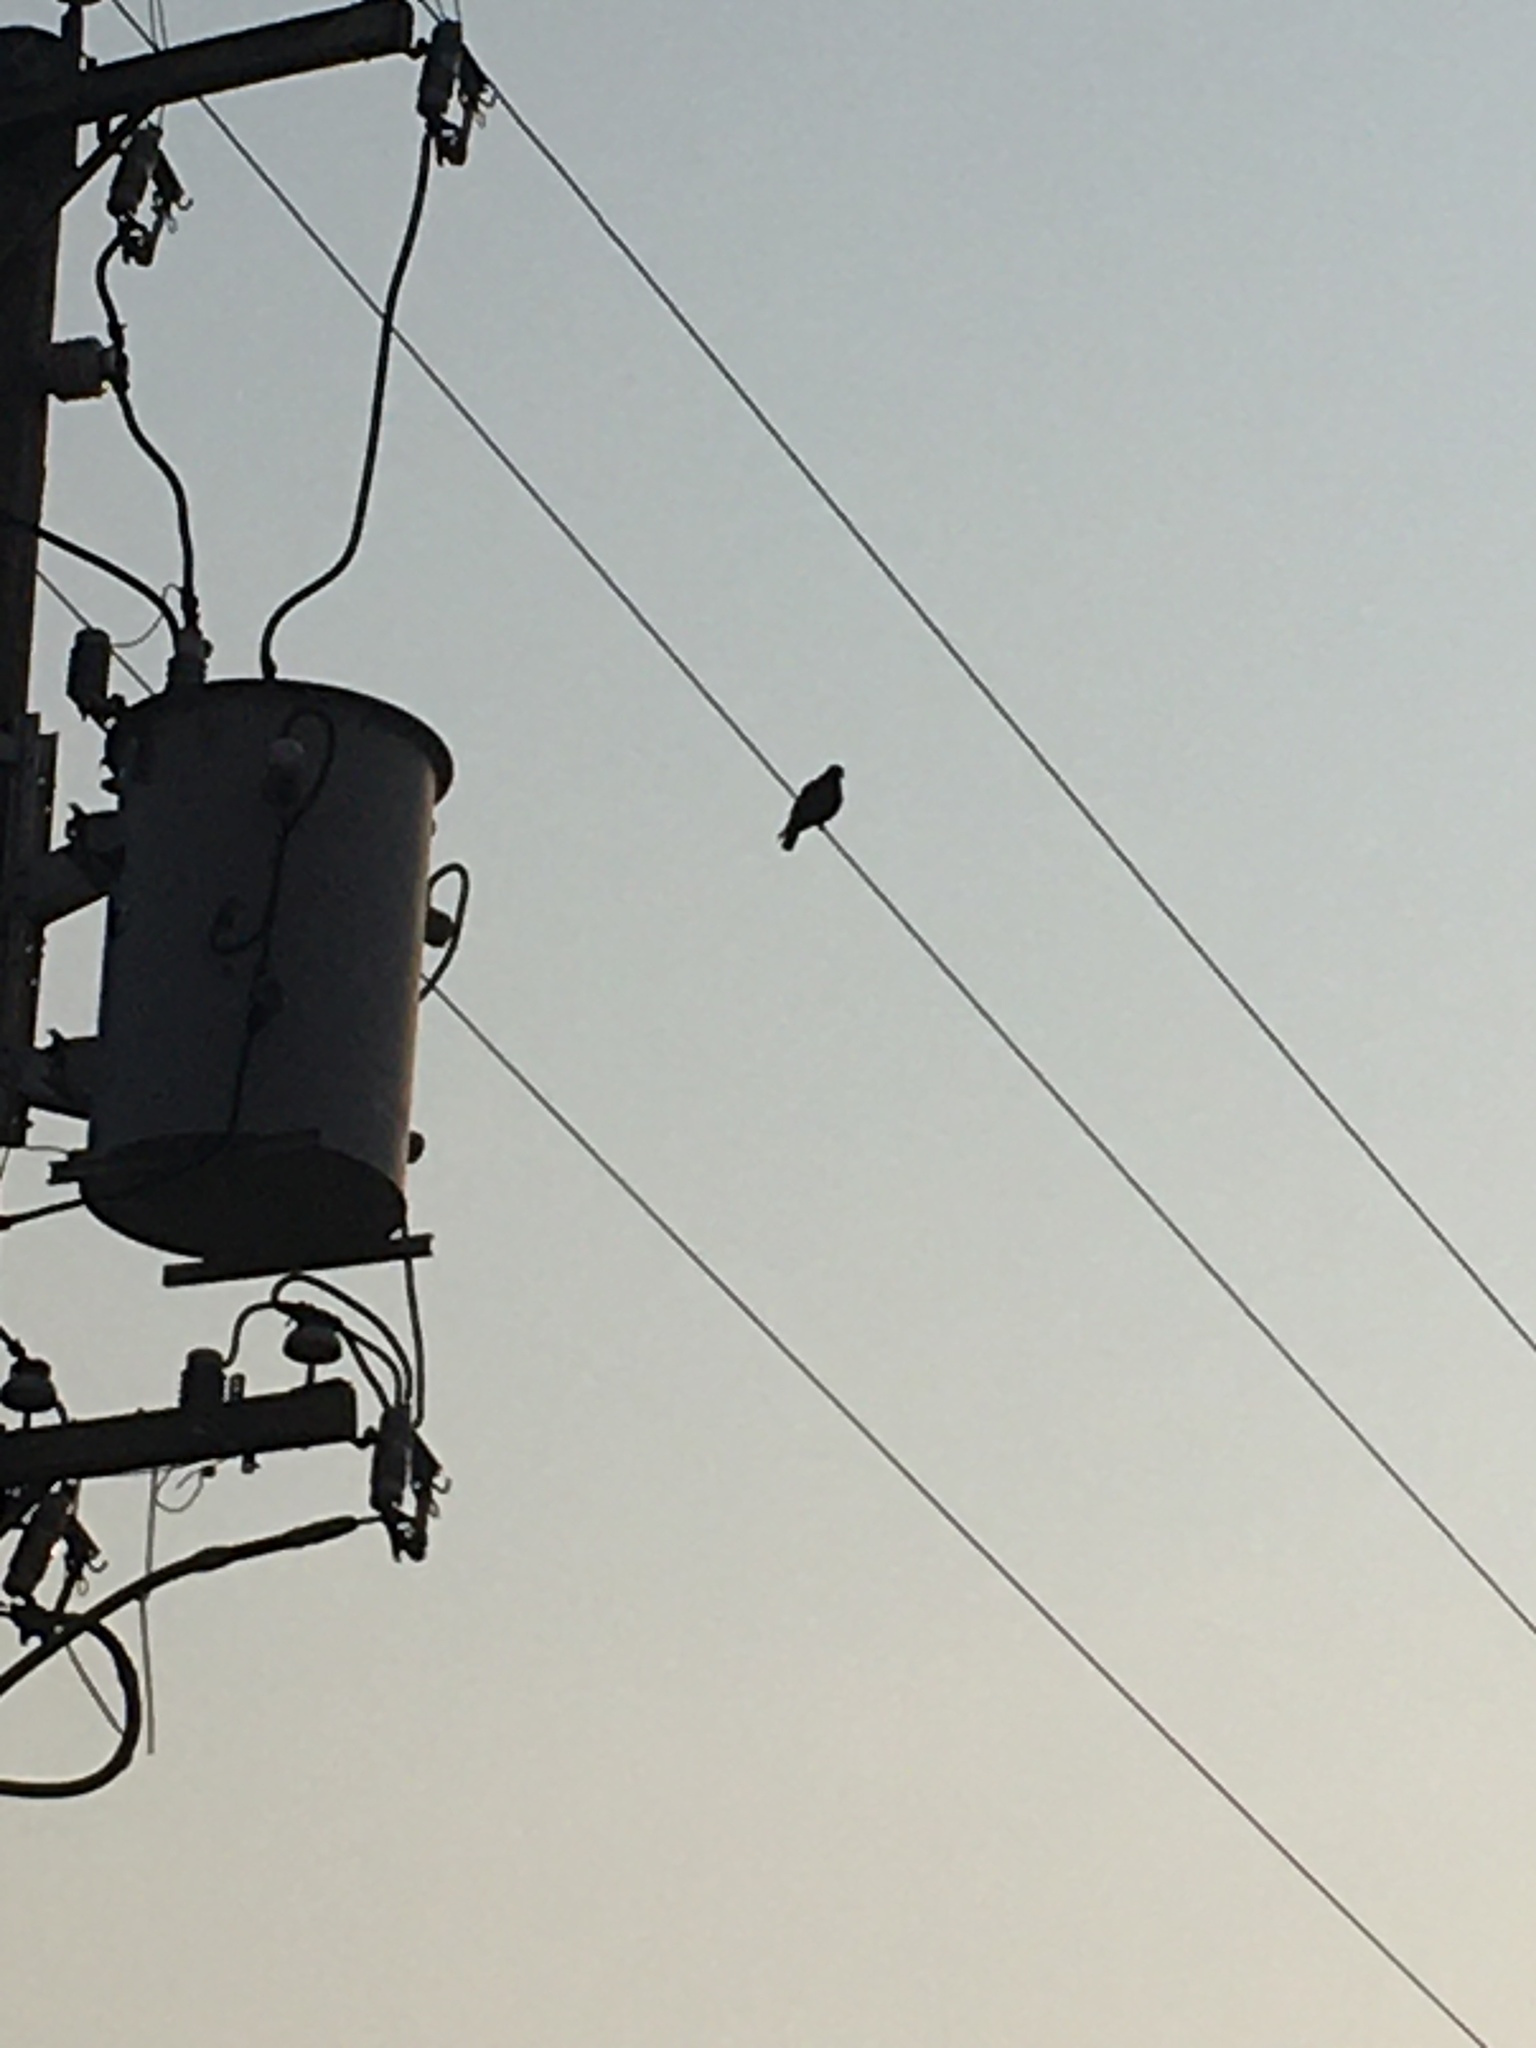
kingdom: Animalia
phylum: Chordata
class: Aves
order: Columbiformes
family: Columbidae
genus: Columba
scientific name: Columba livia
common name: Rock pigeon
